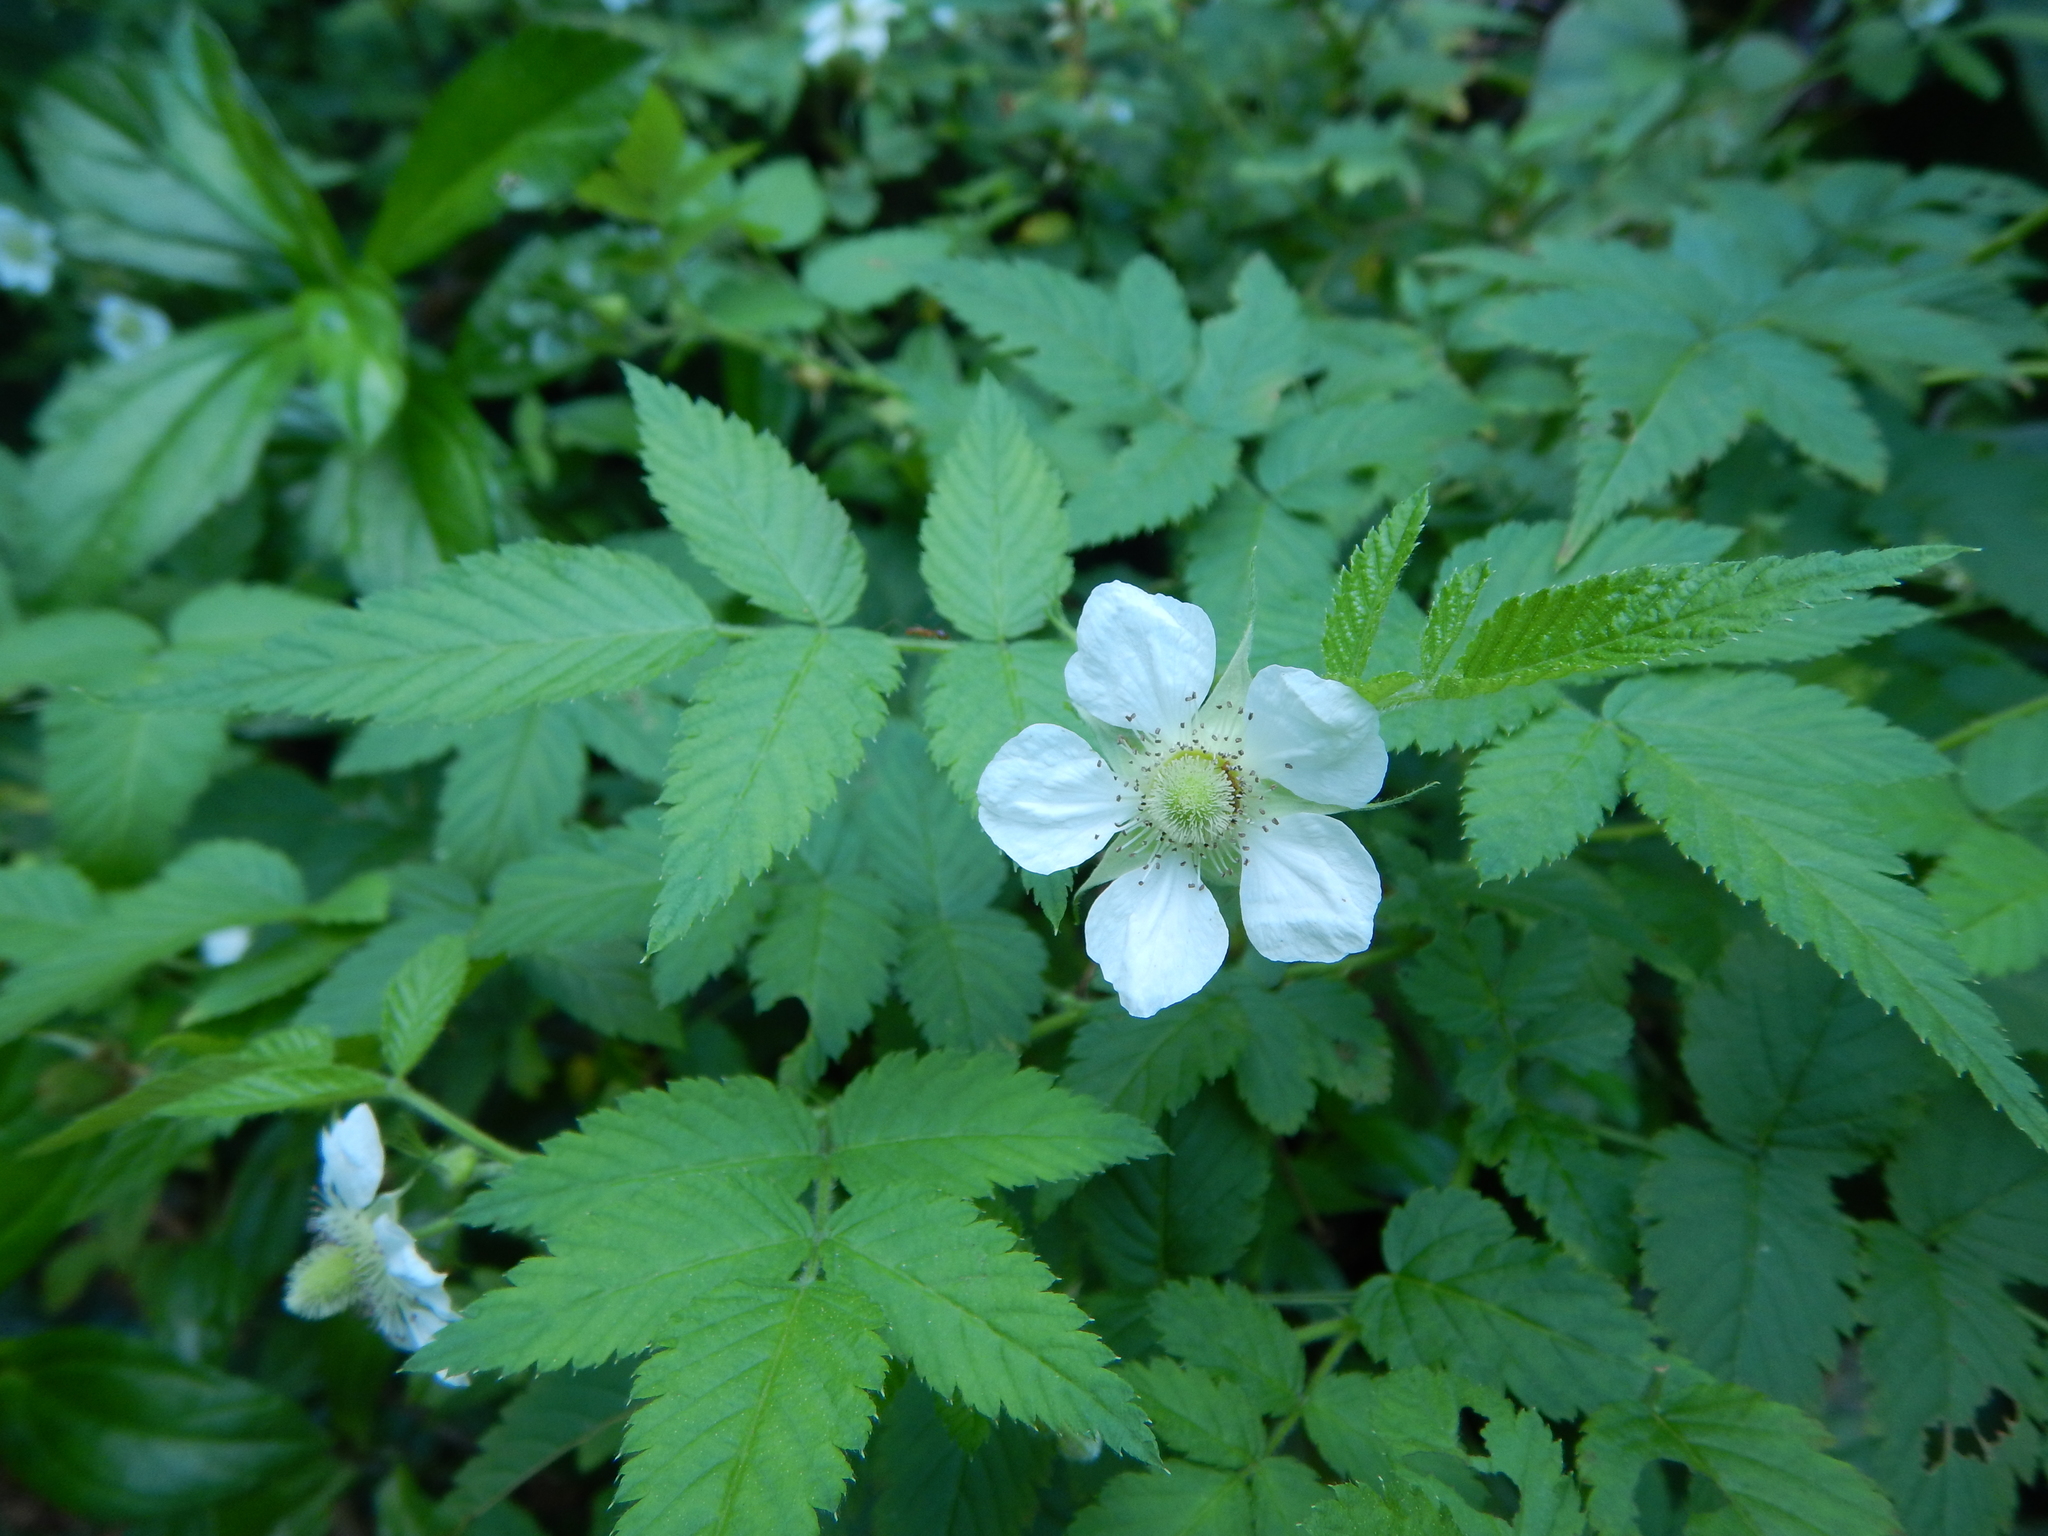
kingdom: Plantae
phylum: Tracheophyta
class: Magnoliopsida
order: Rosales
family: Rosaceae
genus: Rubus
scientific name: Rubus rosifolius
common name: Roseleaf raspberry
